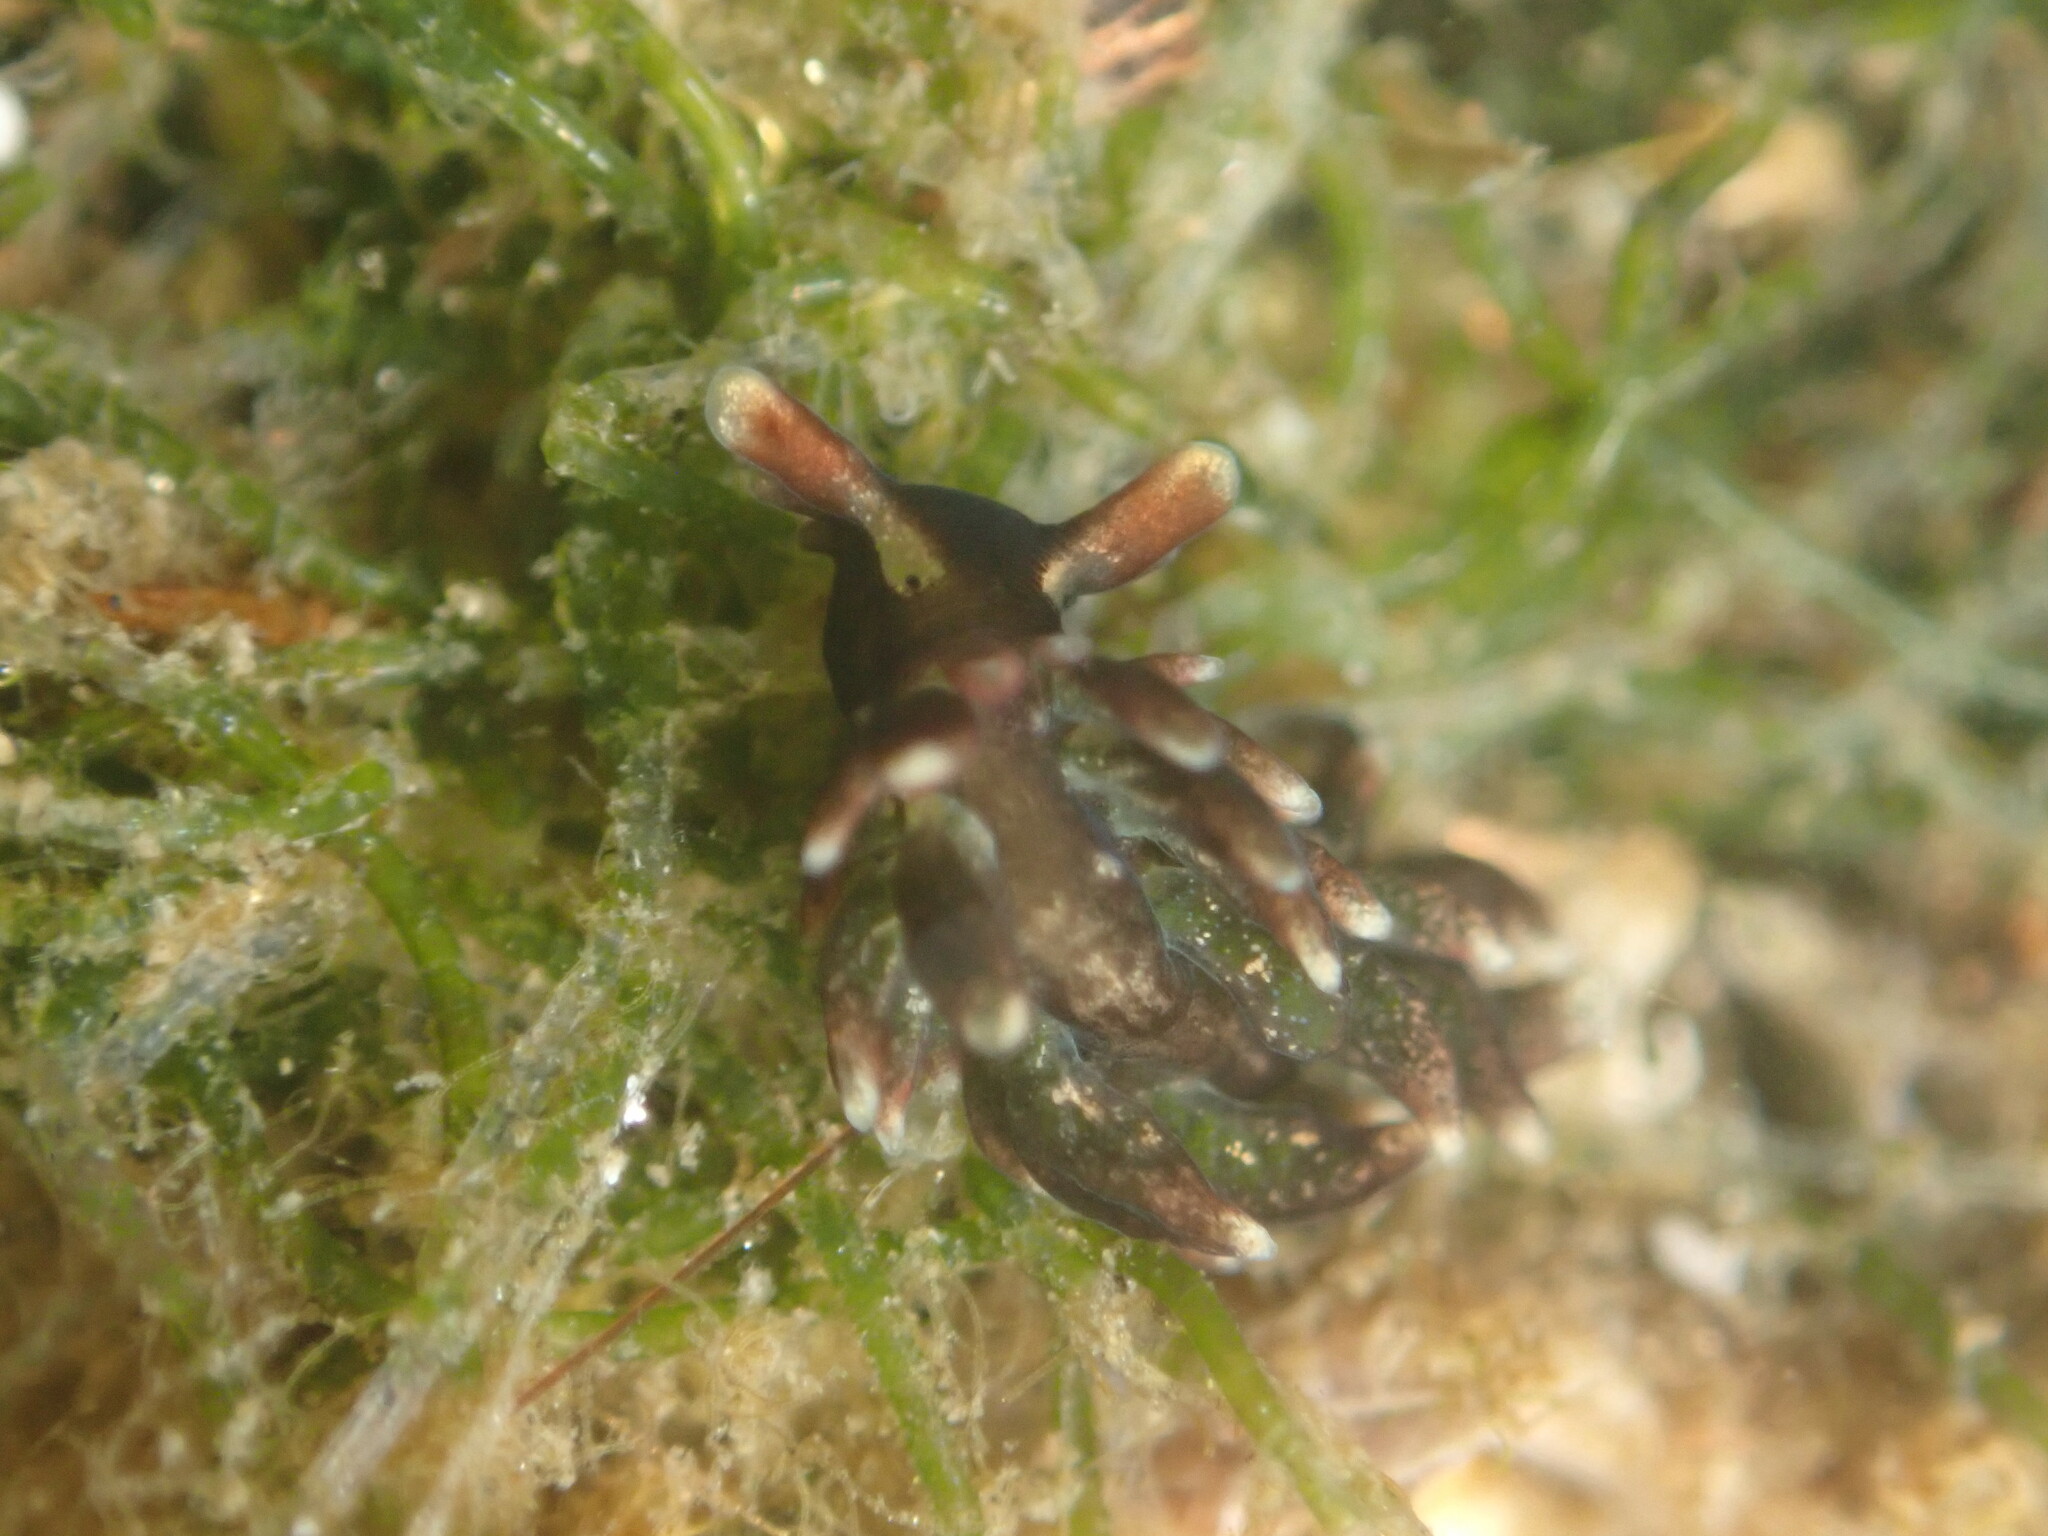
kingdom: Animalia
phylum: Mollusca
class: Gastropoda
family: Hermaeidae
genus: Aplysiopsis
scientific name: Aplysiopsis enteromorphae
